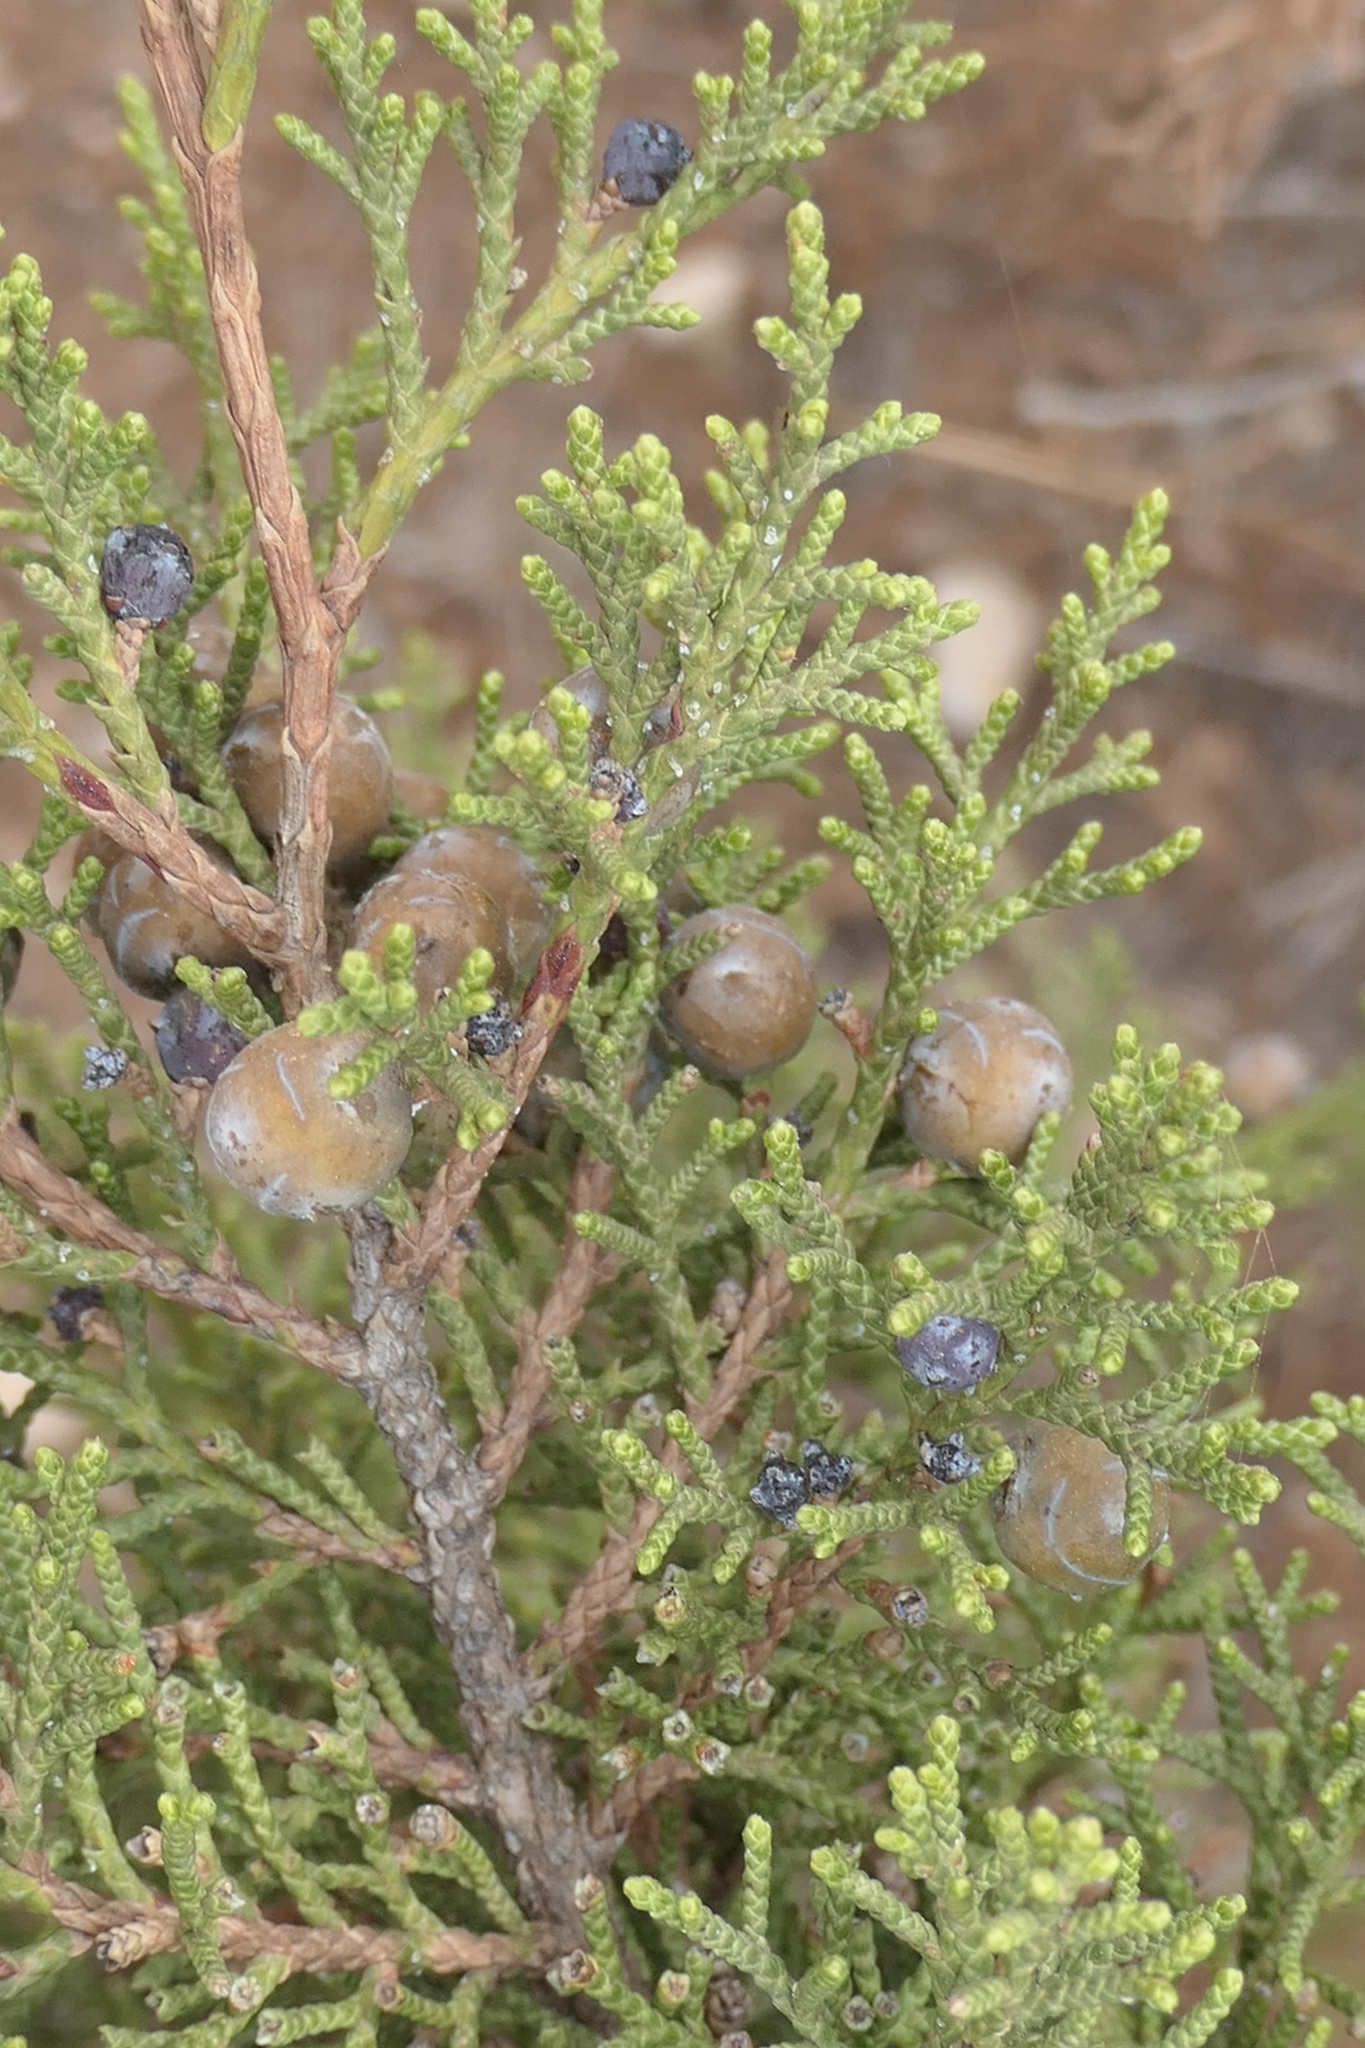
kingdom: Plantae
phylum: Tracheophyta
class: Pinopsida
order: Pinales
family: Cupressaceae
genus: Juniperus
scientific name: Juniperus phoenicea
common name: Phoenician juniper
